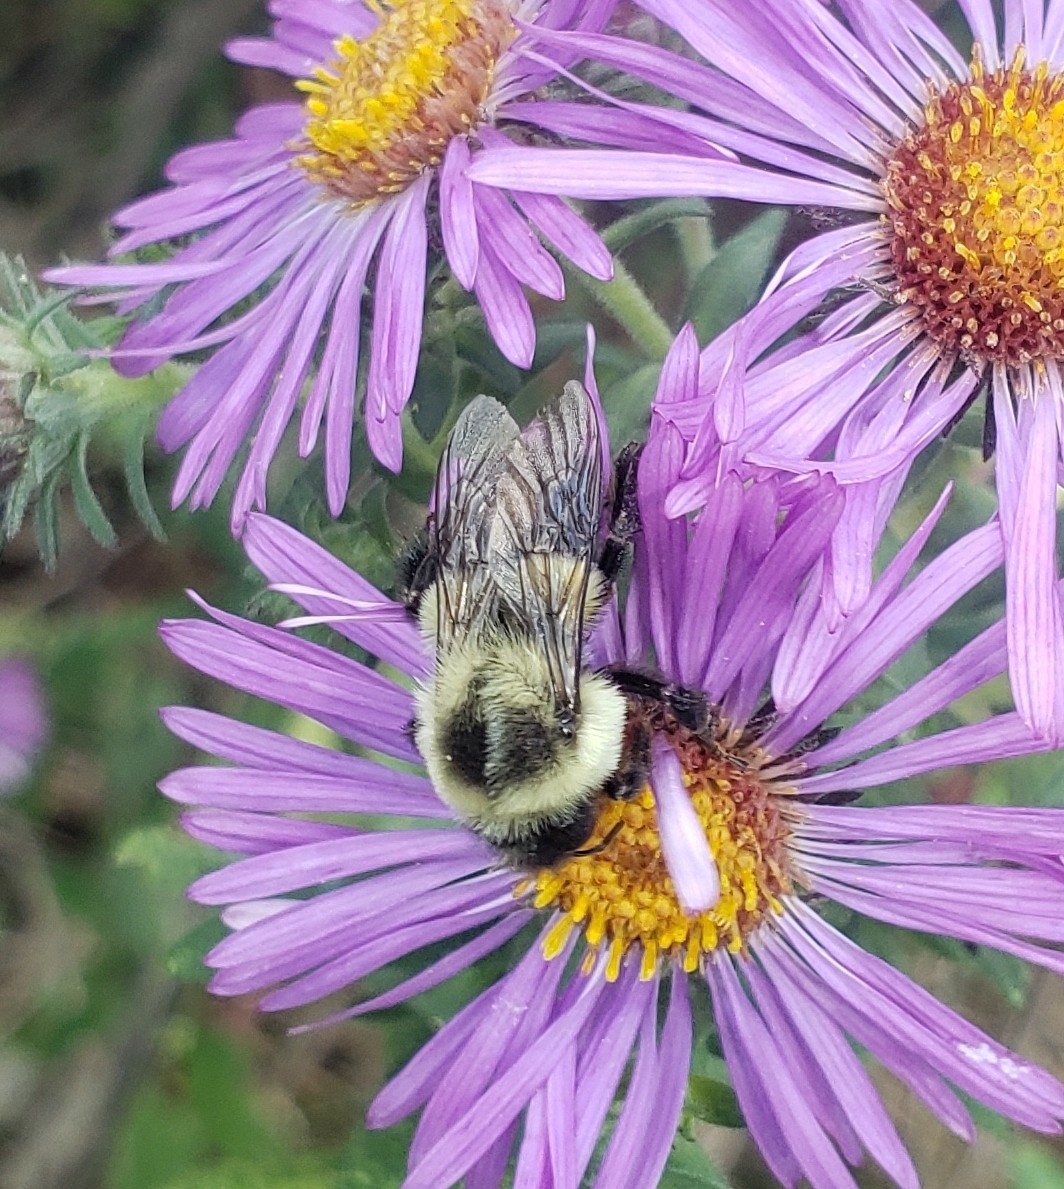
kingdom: Animalia
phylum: Arthropoda
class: Insecta
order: Hymenoptera
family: Apidae
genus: Bombus
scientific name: Bombus impatiens
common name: Common eastern bumble bee
